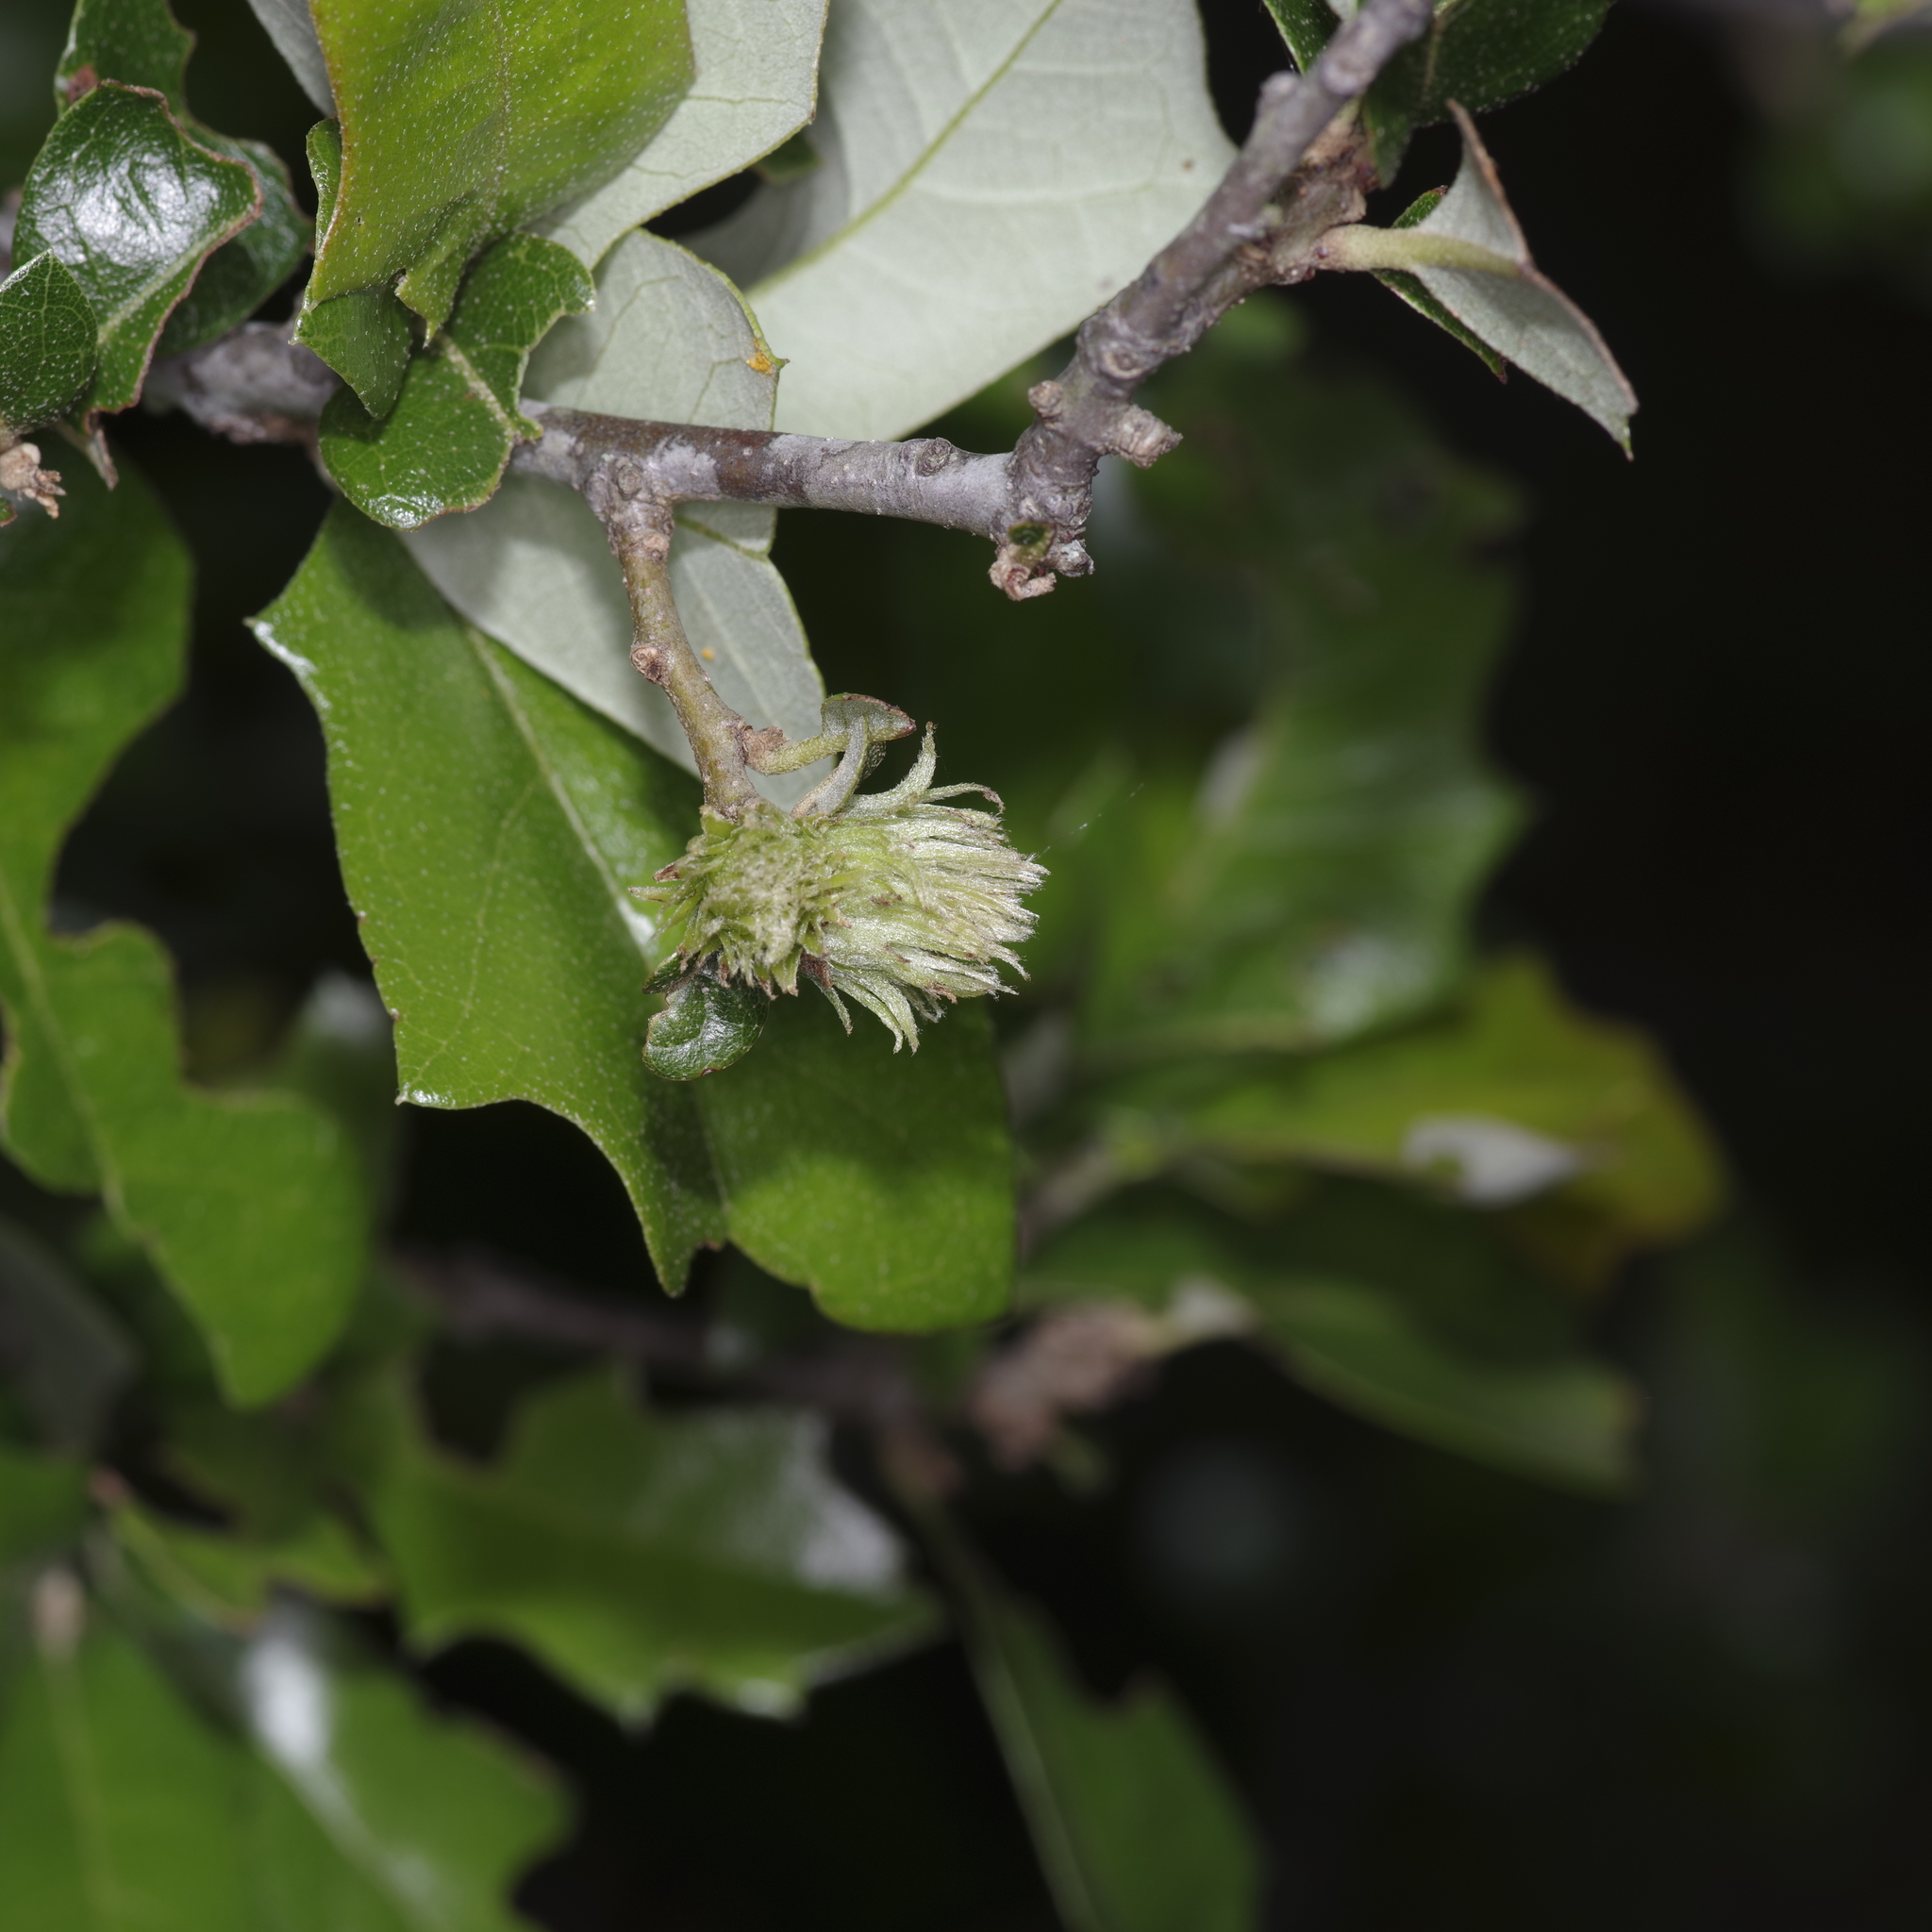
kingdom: Animalia
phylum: Arthropoda
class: Insecta
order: Hymenoptera
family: Cynipidae
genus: Andricus
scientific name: Andricus quercusfoliatus
